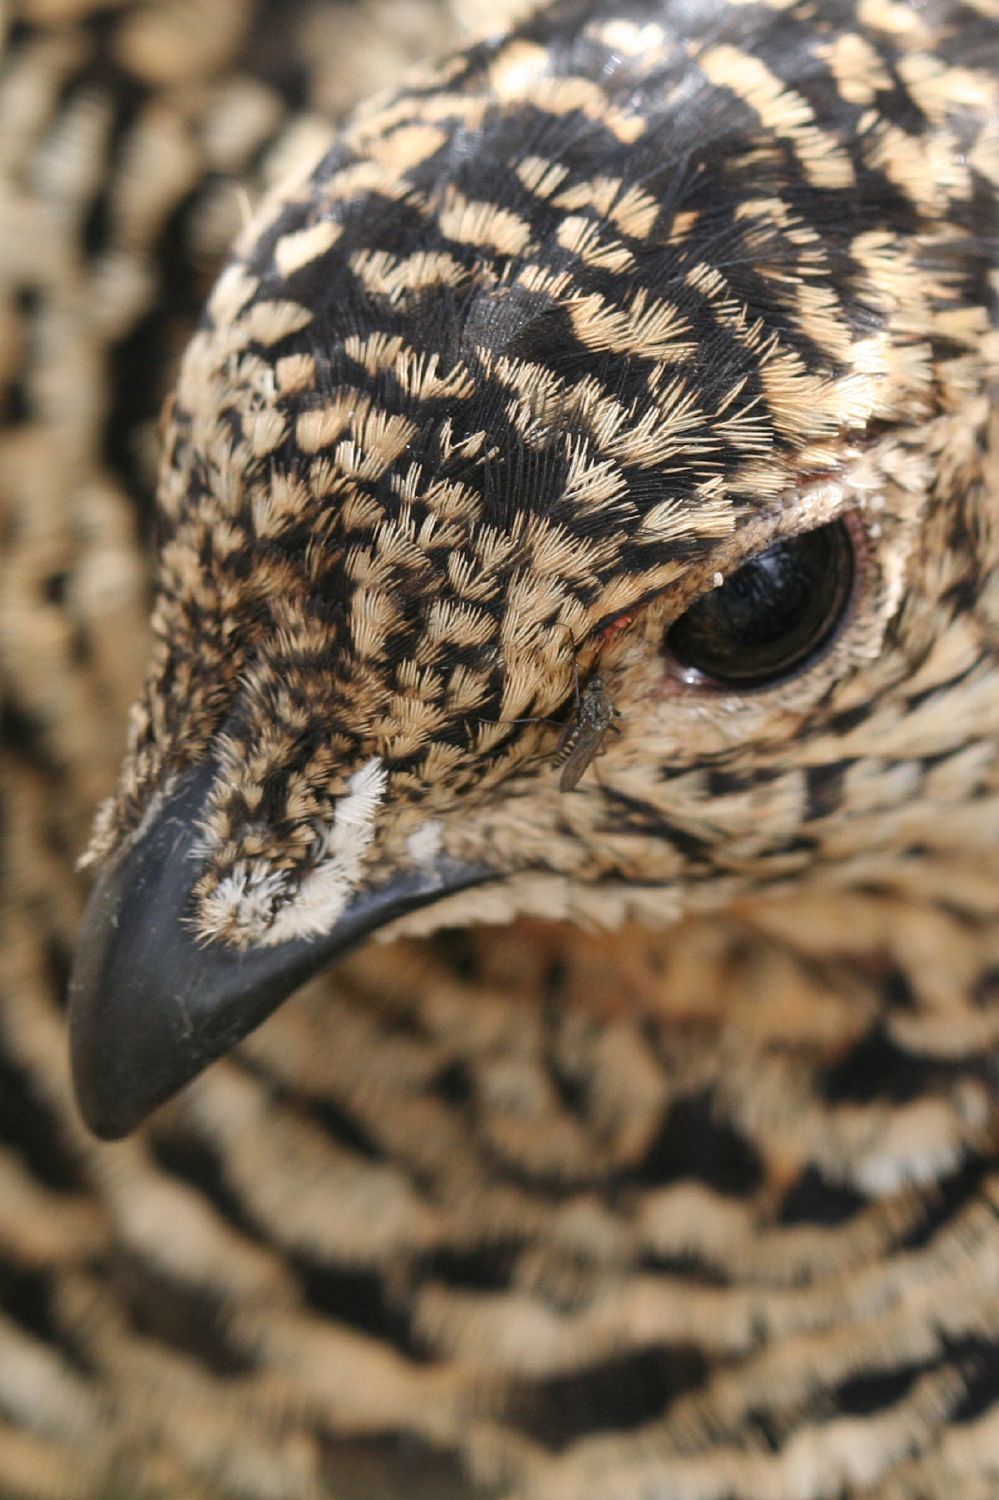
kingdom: Animalia
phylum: Chordata
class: Aves
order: Galliformes
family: Phasianidae
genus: Lagopus
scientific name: Lagopus lagopus
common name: Willow ptarmigan
